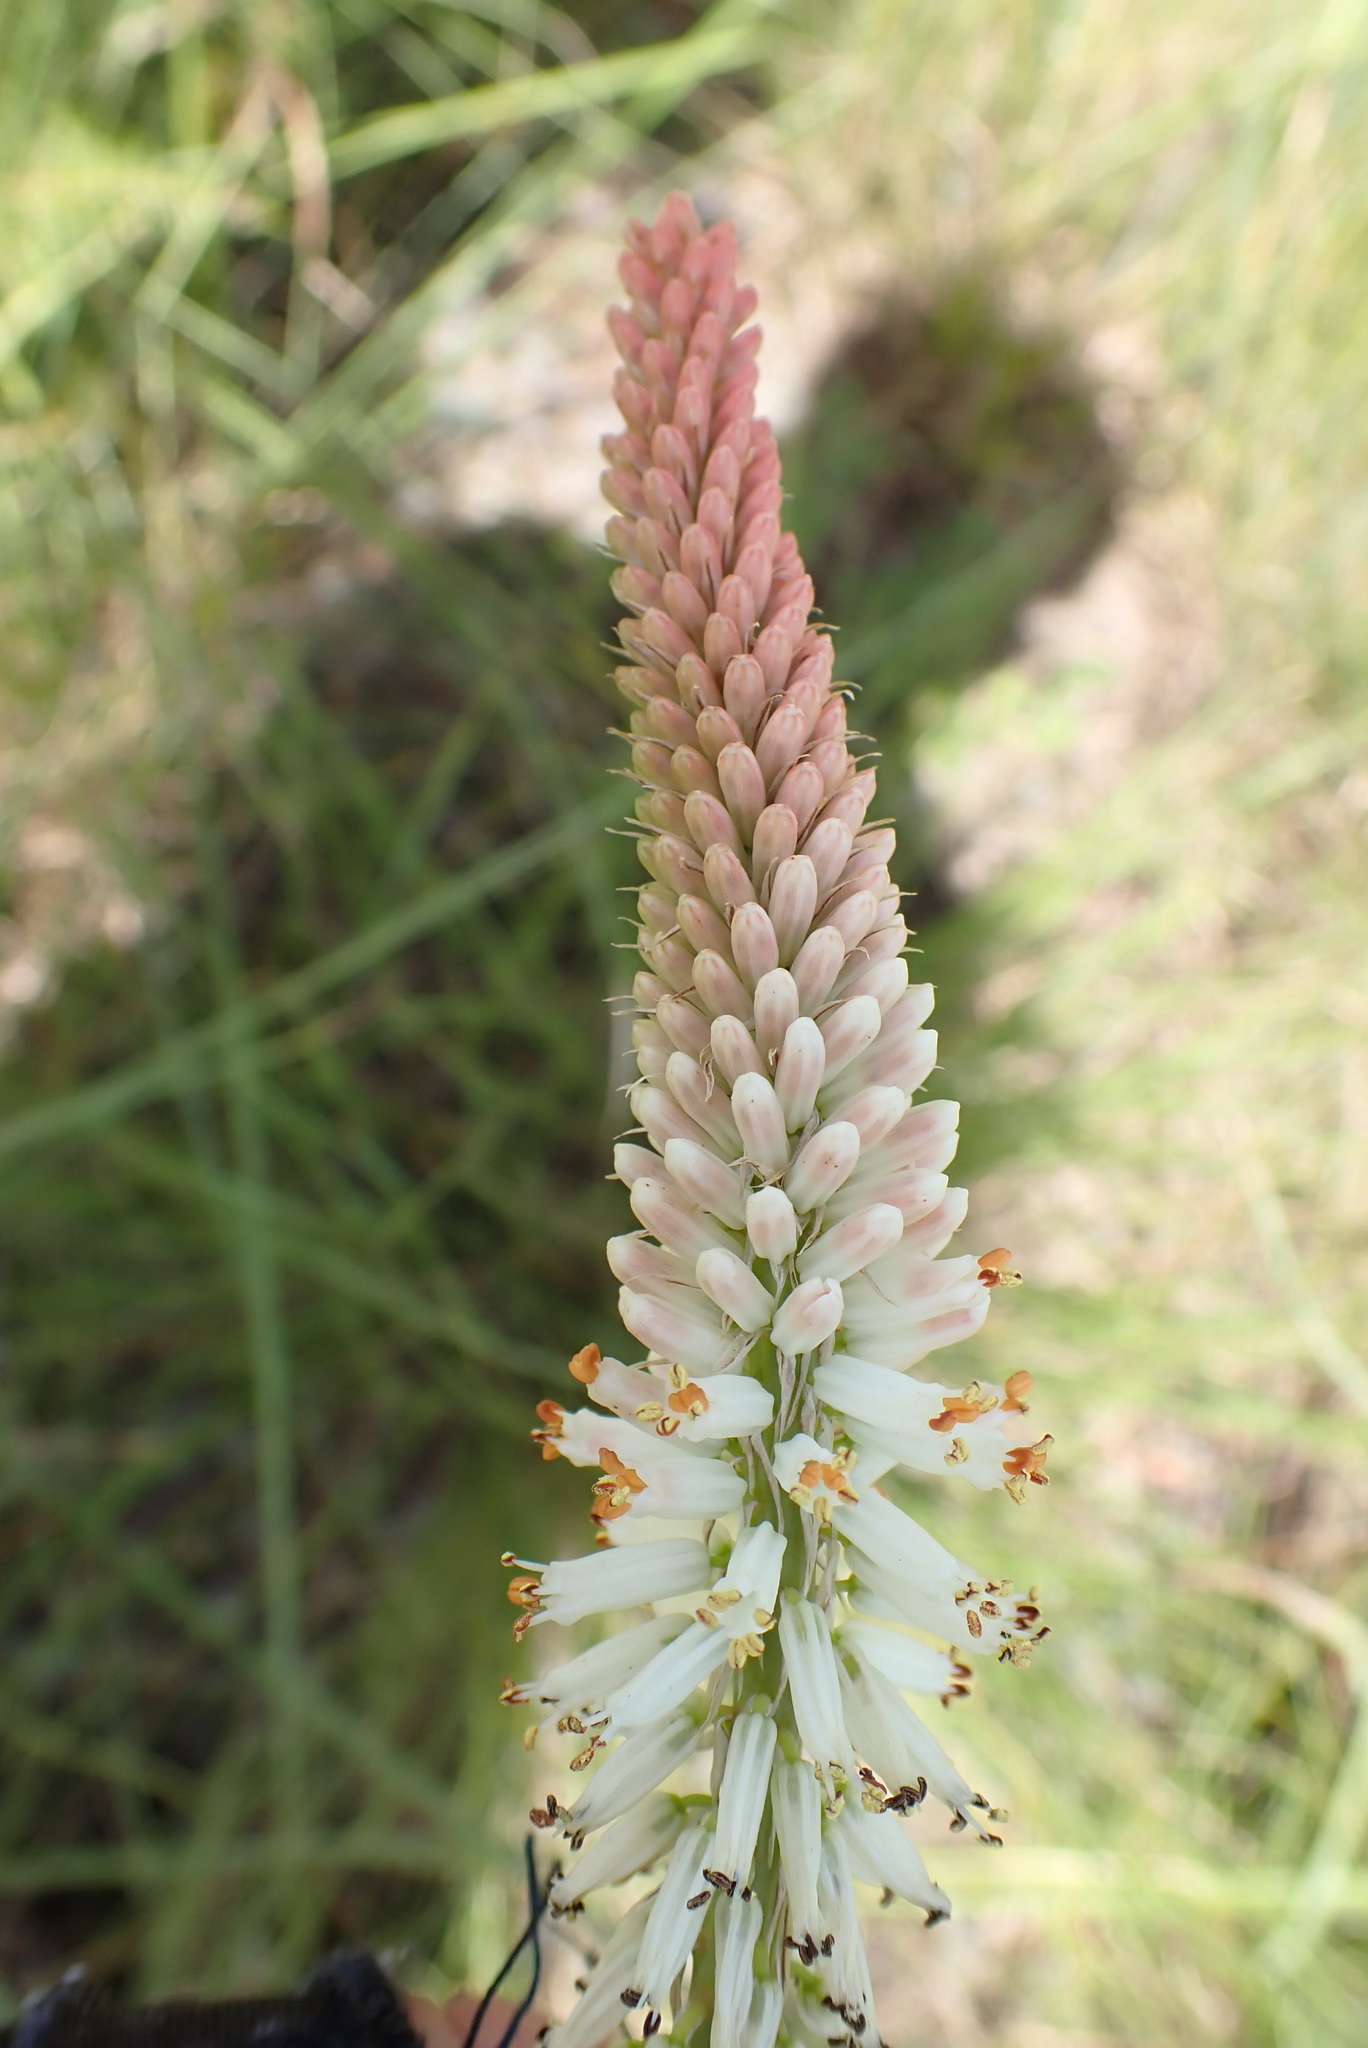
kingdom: Plantae
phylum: Tracheophyta
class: Liliopsida
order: Asparagales
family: Asphodelaceae
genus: Kniphofia
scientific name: Kniphofia buchananii
